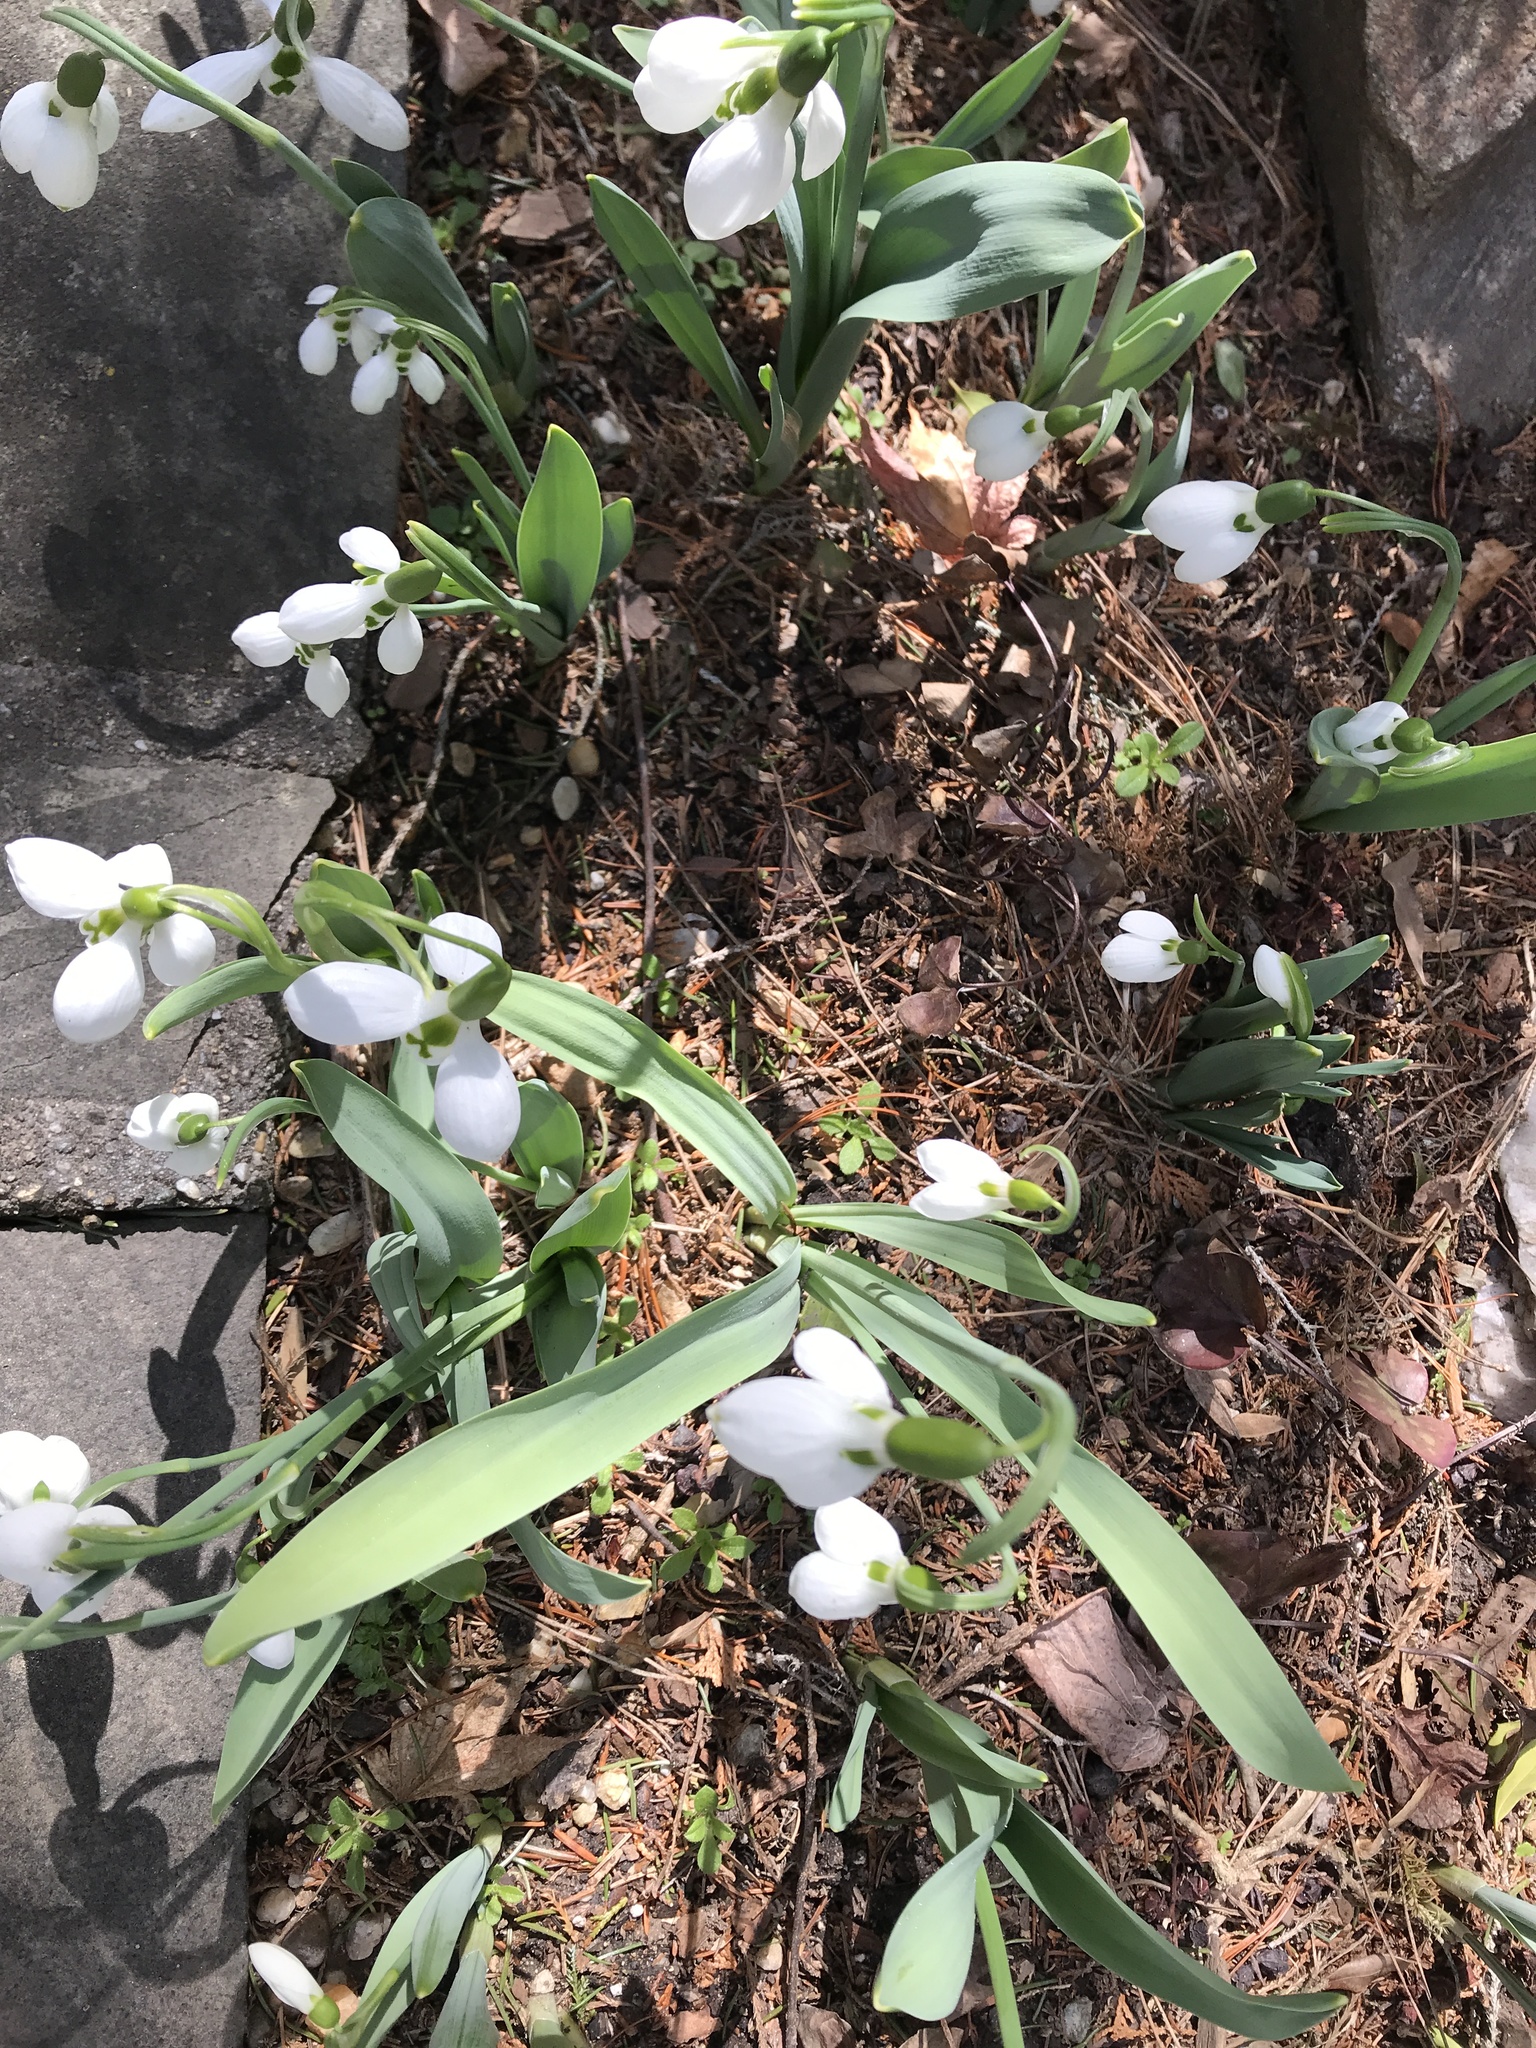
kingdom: Plantae
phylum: Tracheophyta
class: Liliopsida
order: Asparagales
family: Amaryllidaceae
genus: Galanthus
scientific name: Galanthus elwesii
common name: Greater snowdrop
